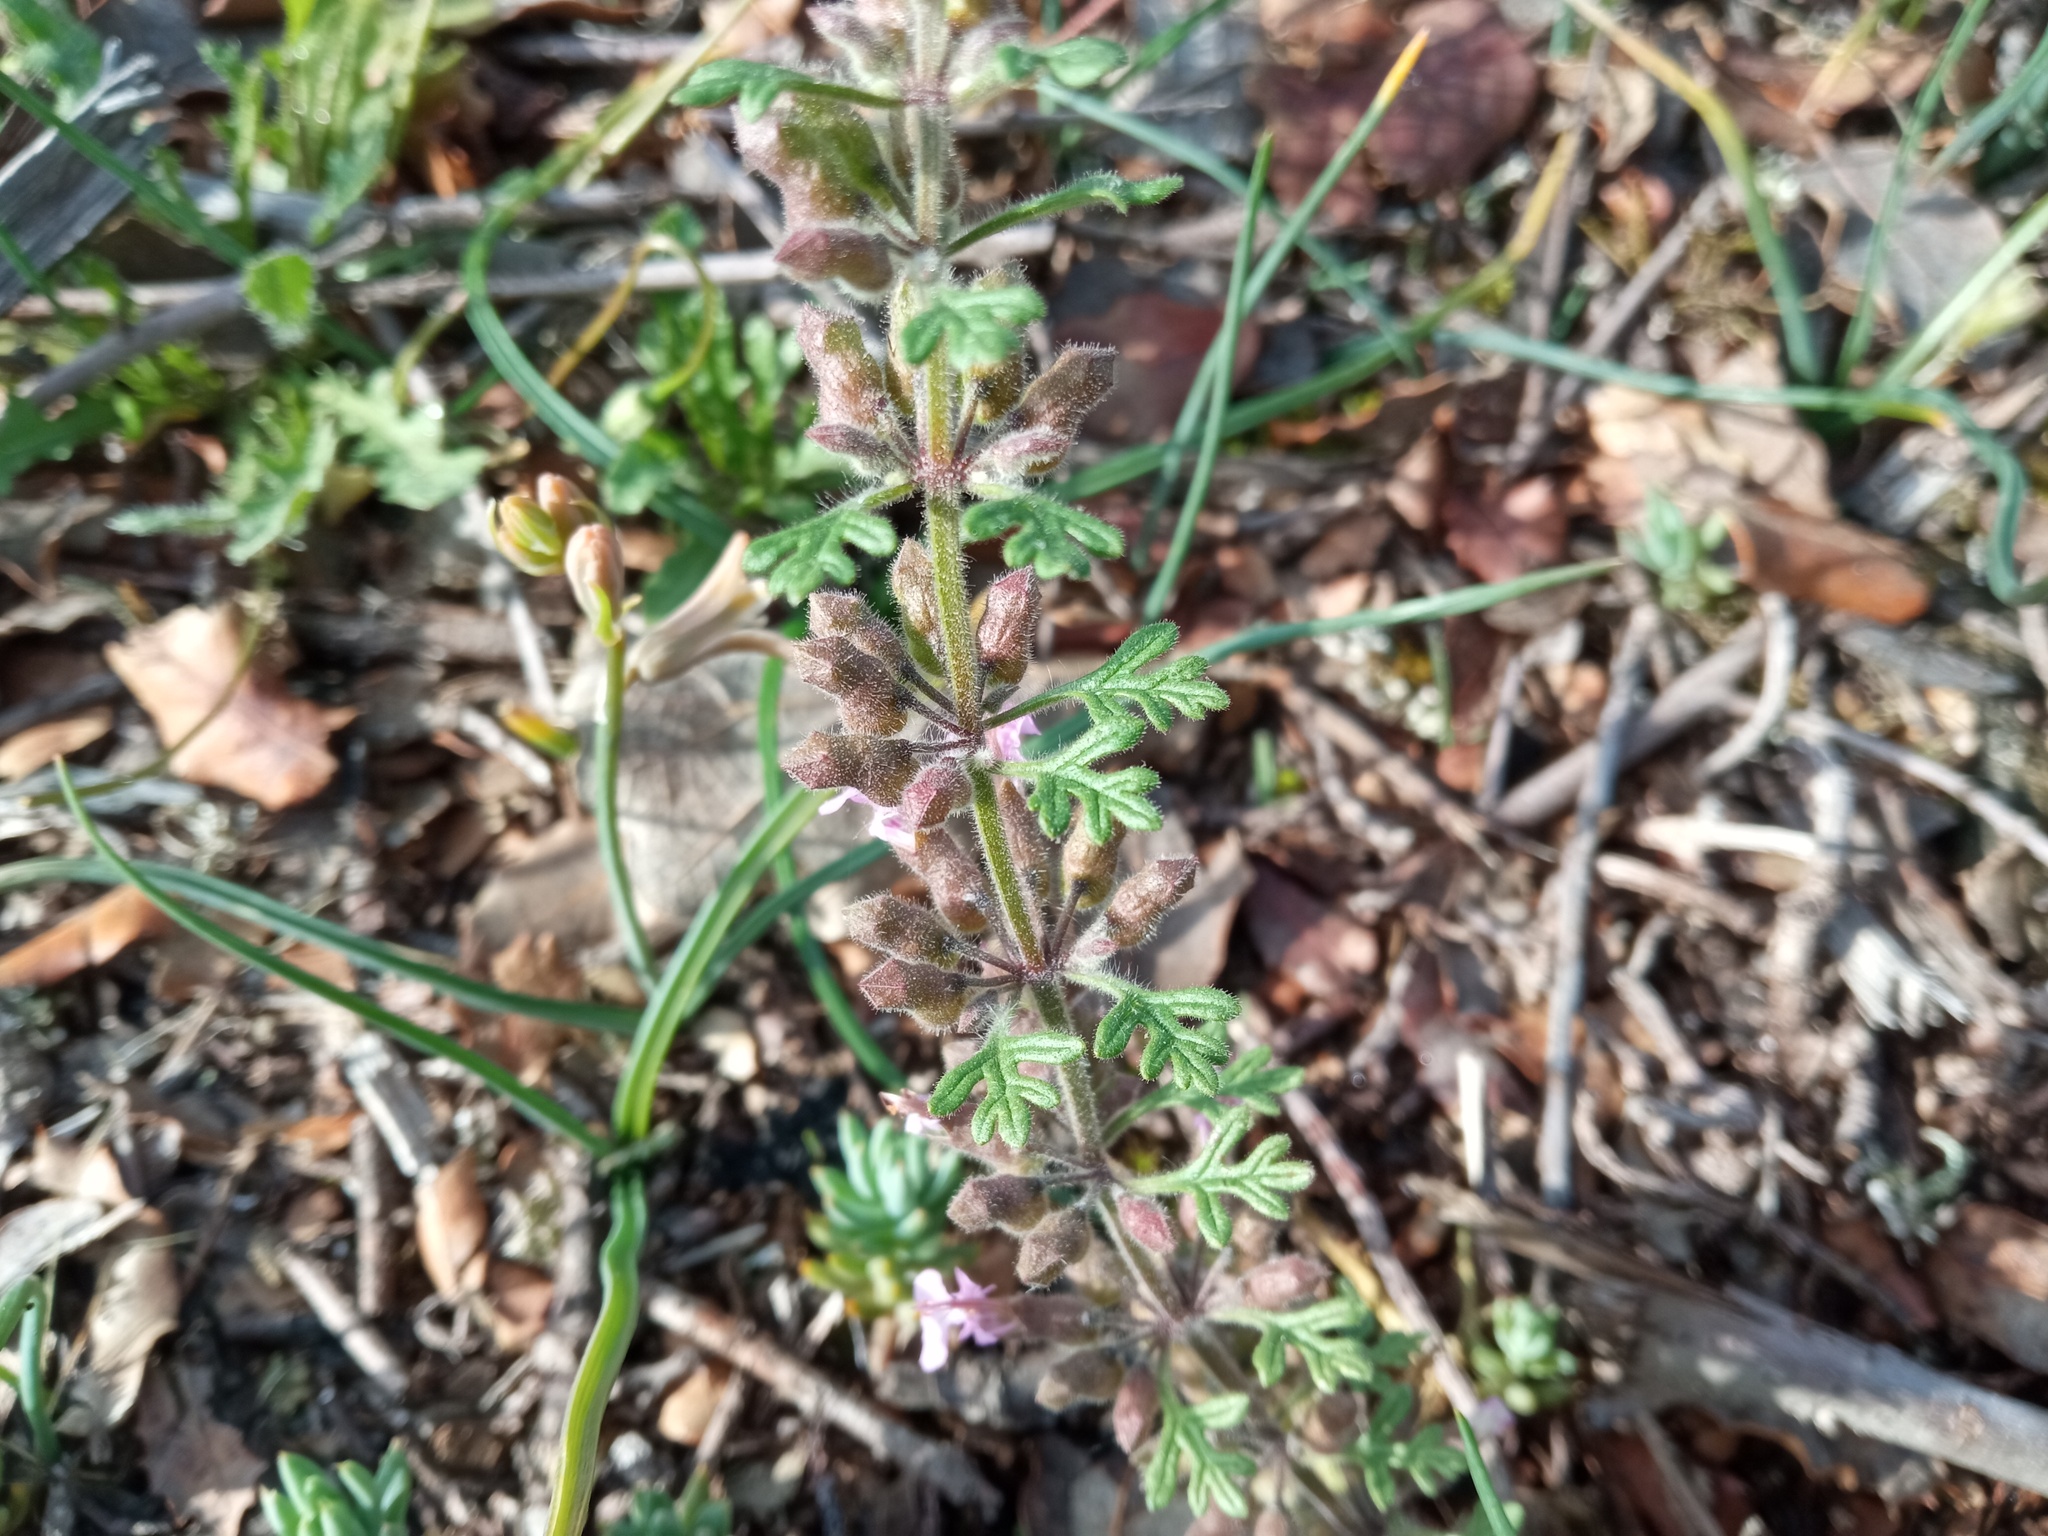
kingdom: Plantae
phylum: Tracheophyta
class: Magnoliopsida
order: Lamiales
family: Lamiaceae
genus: Teucrium
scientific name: Teucrium botrys
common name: Cut-leaved germander
